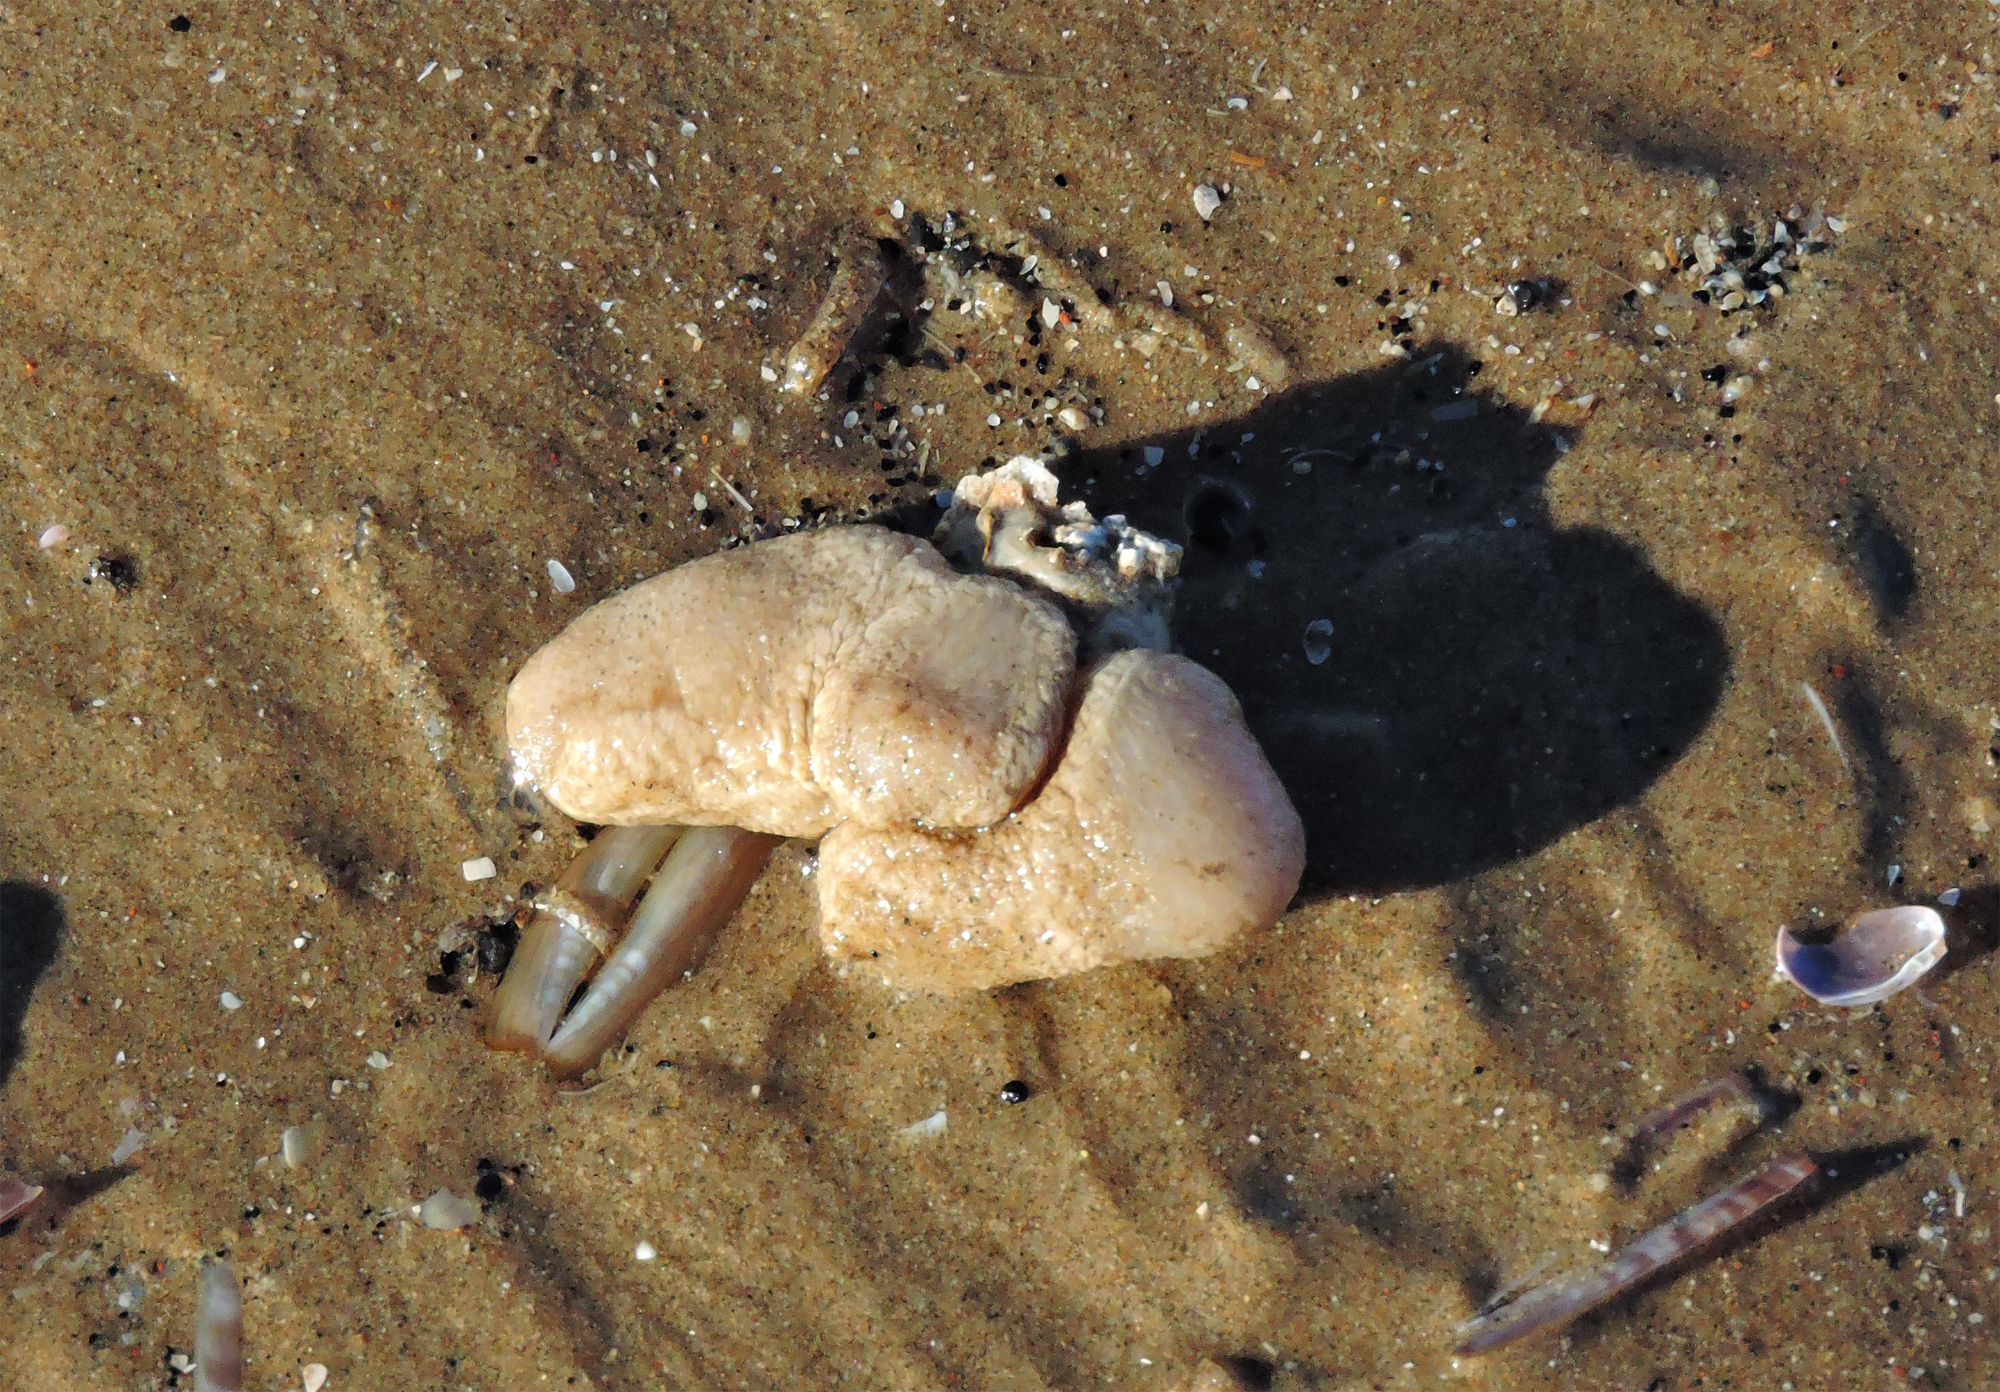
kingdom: Animalia
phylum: Cnidaria
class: Anthozoa
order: Malacalcyonacea
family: Alcyoniidae
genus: Alcyonium
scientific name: Alcyonium digitatum
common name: Dead man's fingers
